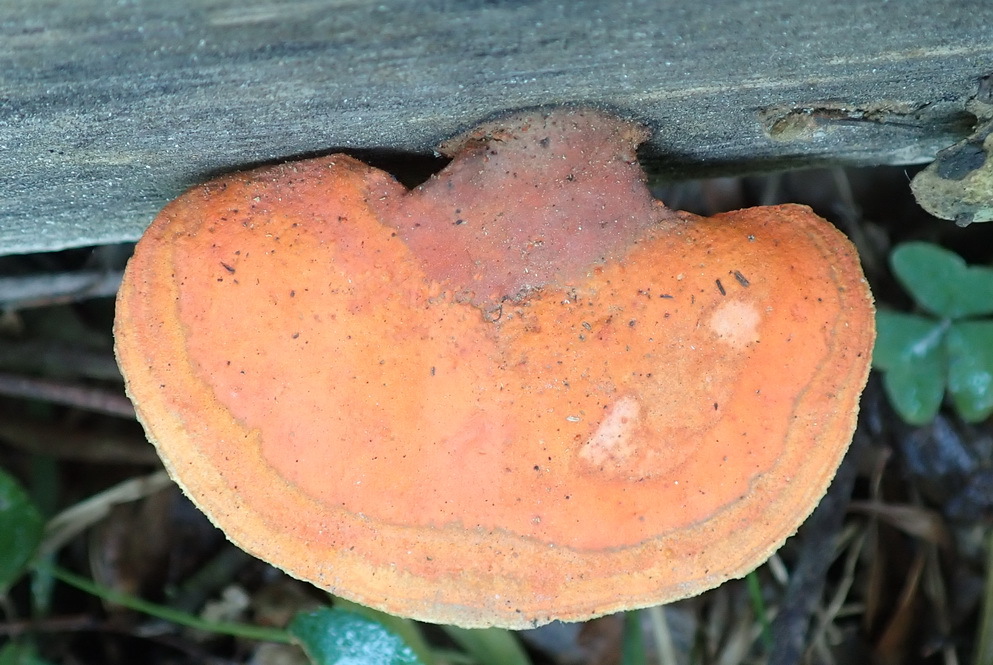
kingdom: Fungi
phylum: Basidiomycota
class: Agaricomycetes
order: Polyporales
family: Polyporaceae
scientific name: Polyporaceae
